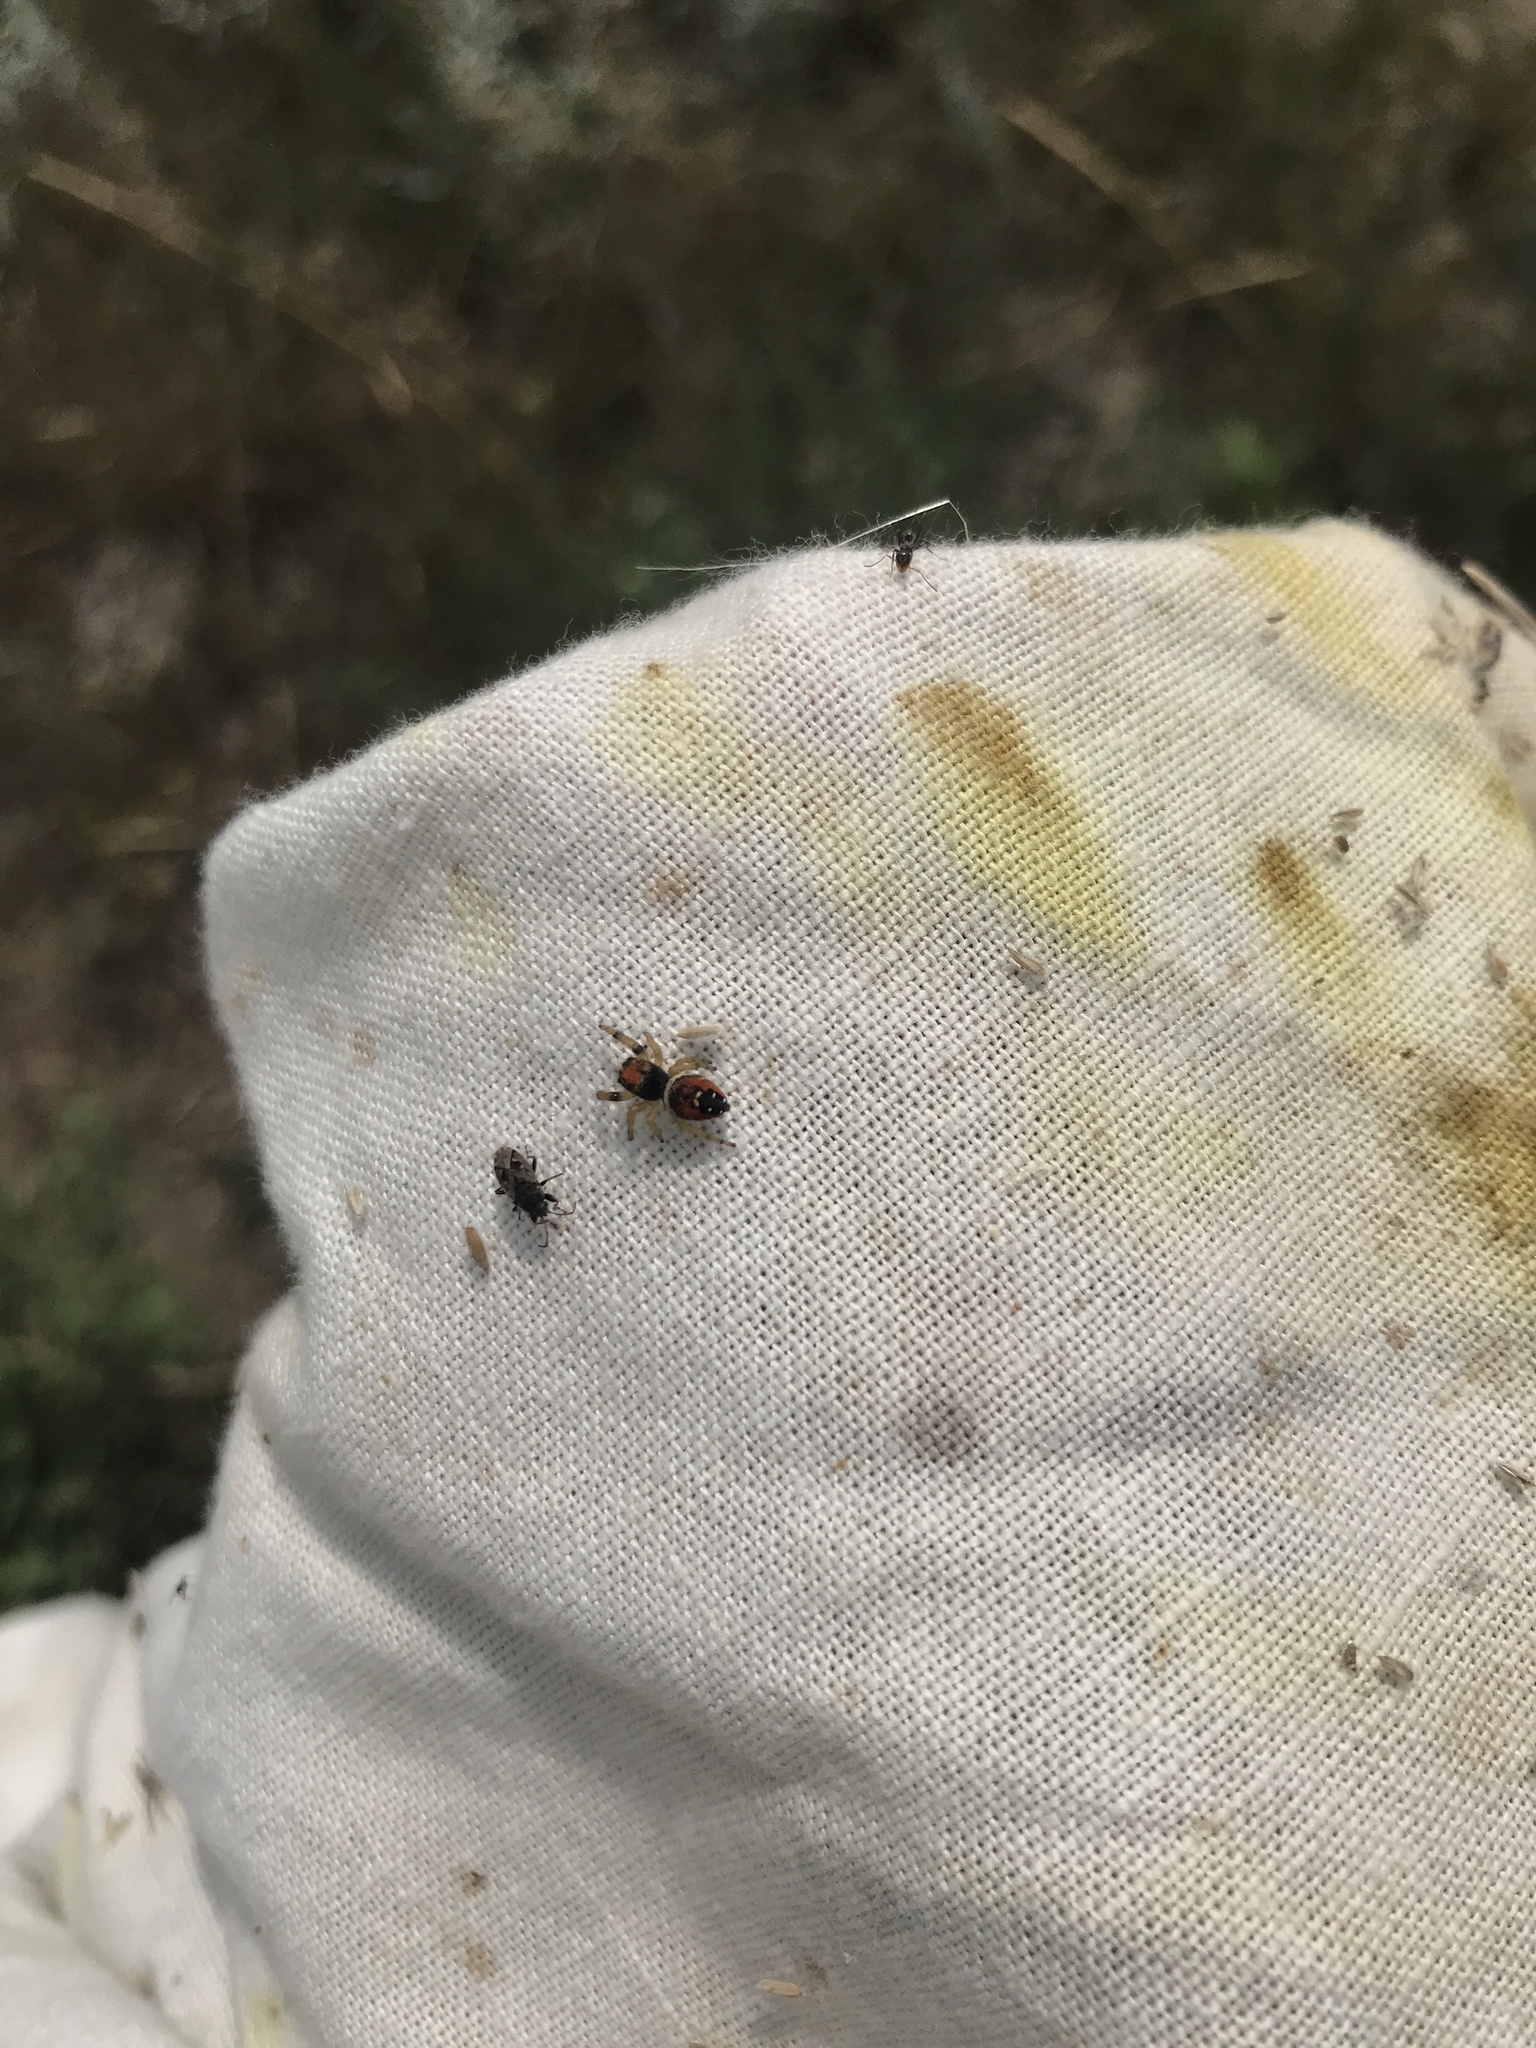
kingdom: Animalia
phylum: Arthropoda
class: Arachnida
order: Araneae
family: Salticidae
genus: Phidippus
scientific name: Phidippus apacheanus
